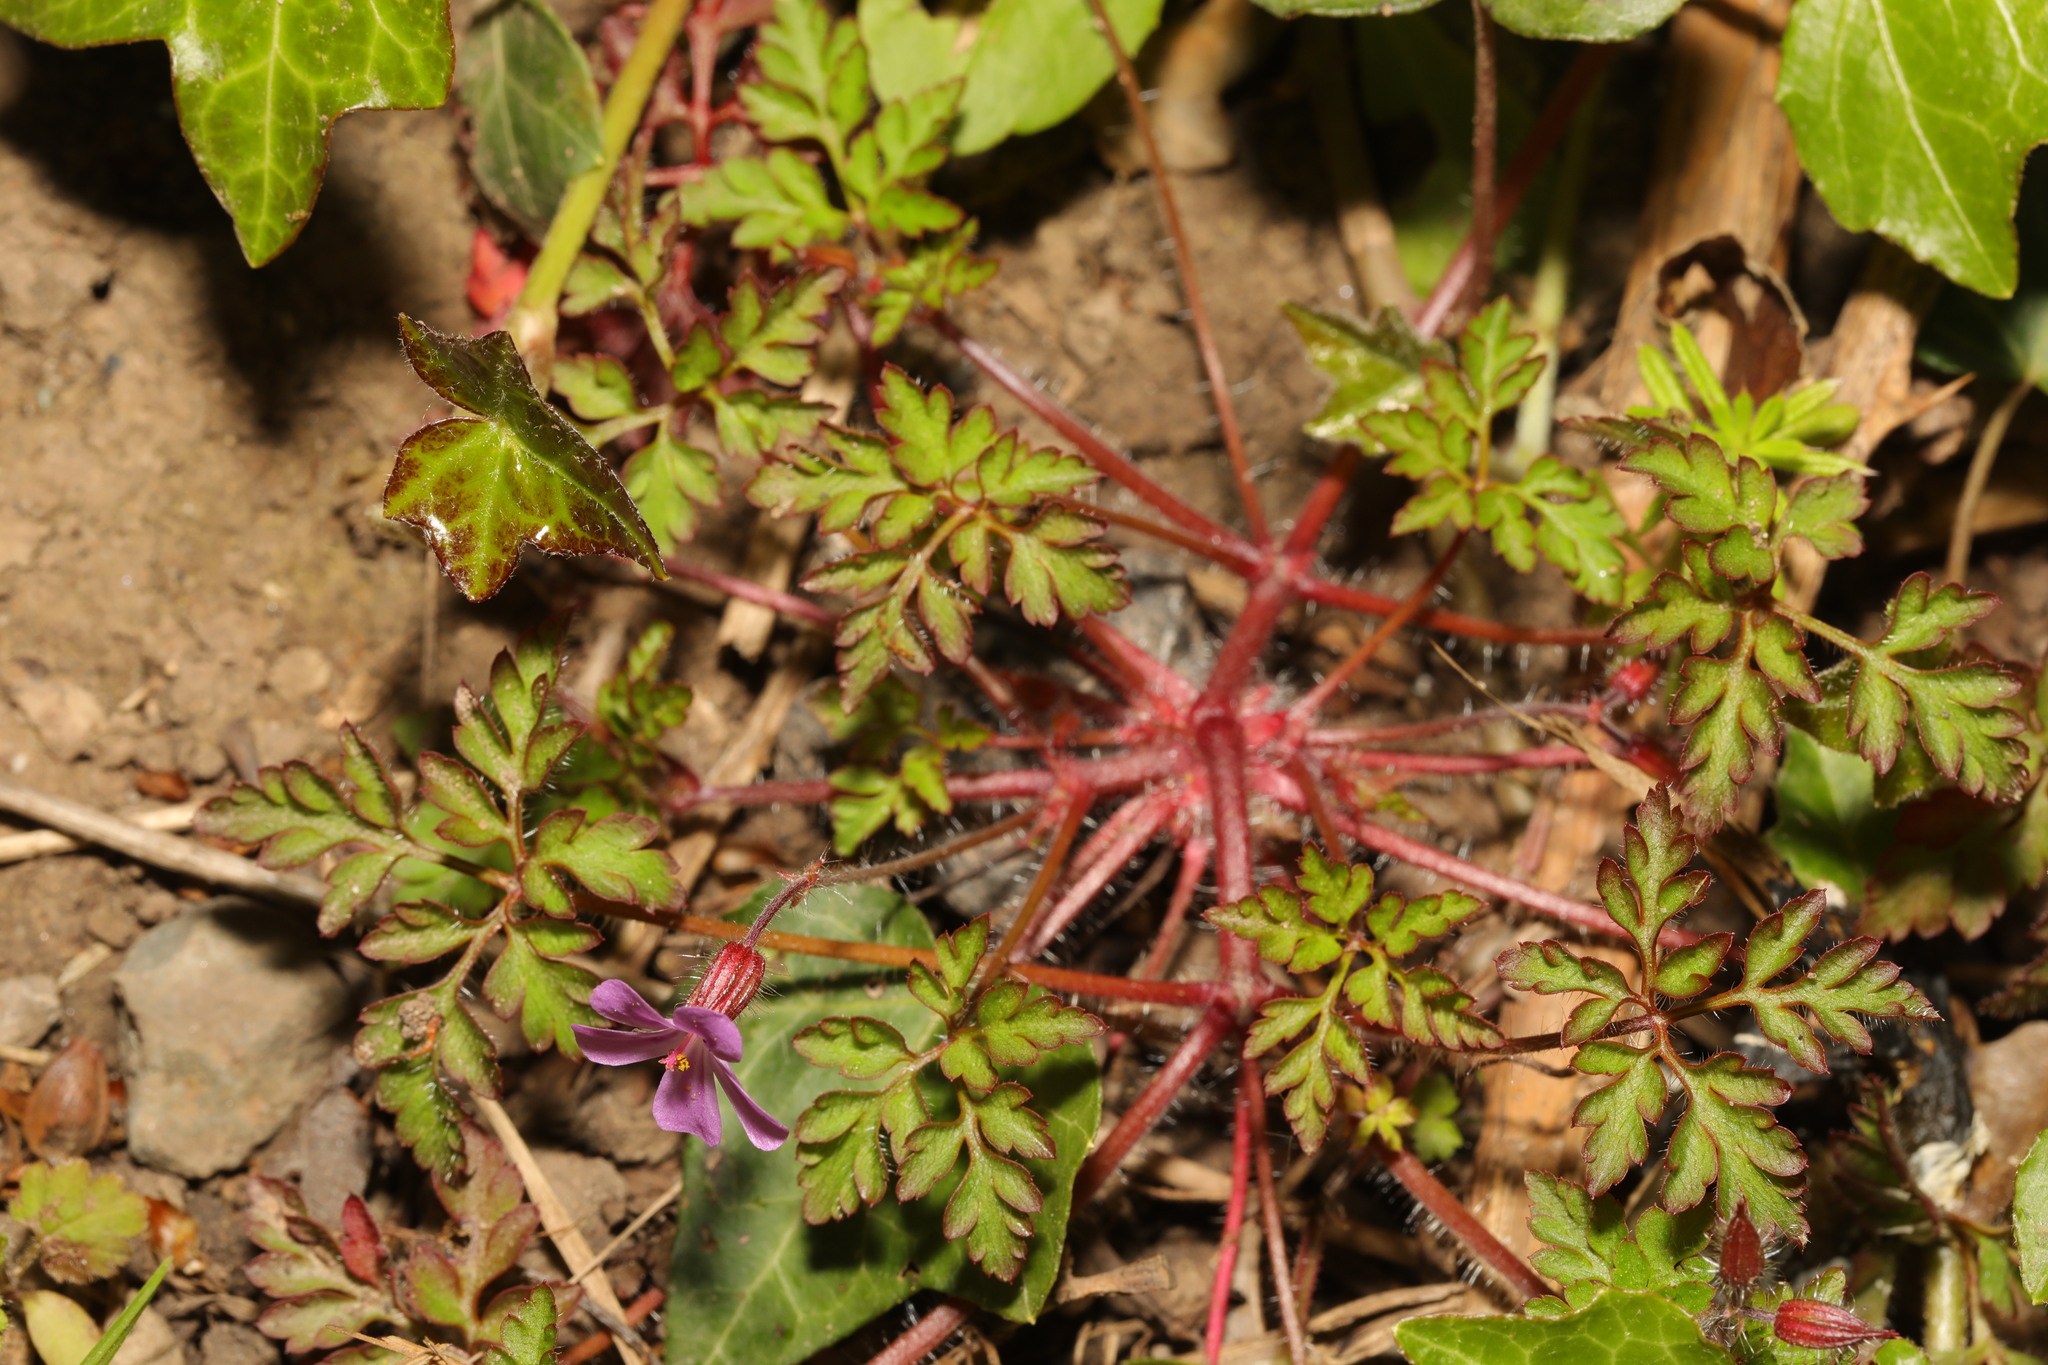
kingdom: Plantae
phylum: Tracheophyta
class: Magnoliopsida
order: Geraniales
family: Geraniaceae
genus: Geranium
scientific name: Geranium robertianum
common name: Herb-robert
